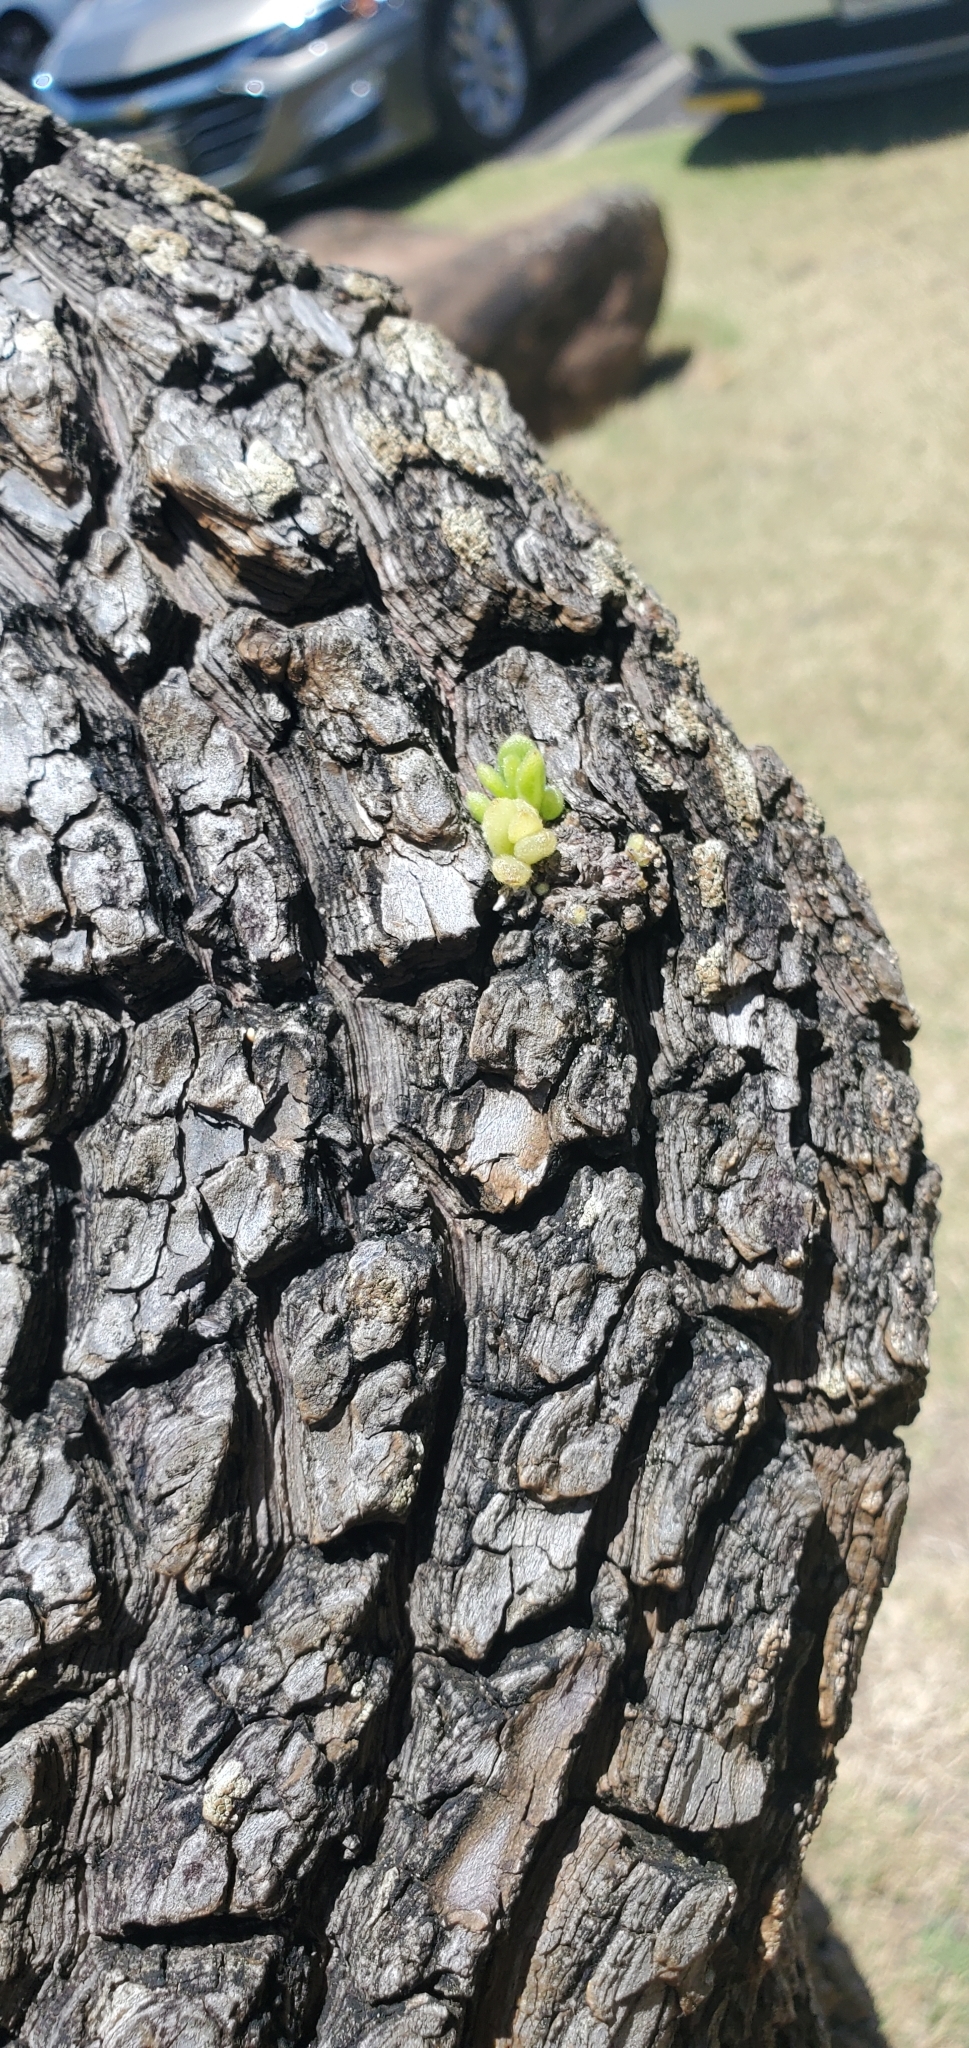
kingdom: Plantae
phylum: Tracheophyta
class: Magnoliopsida
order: Boraginales
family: Heliotropiaceae
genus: Heliotropium
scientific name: Heliotropium velutinum
